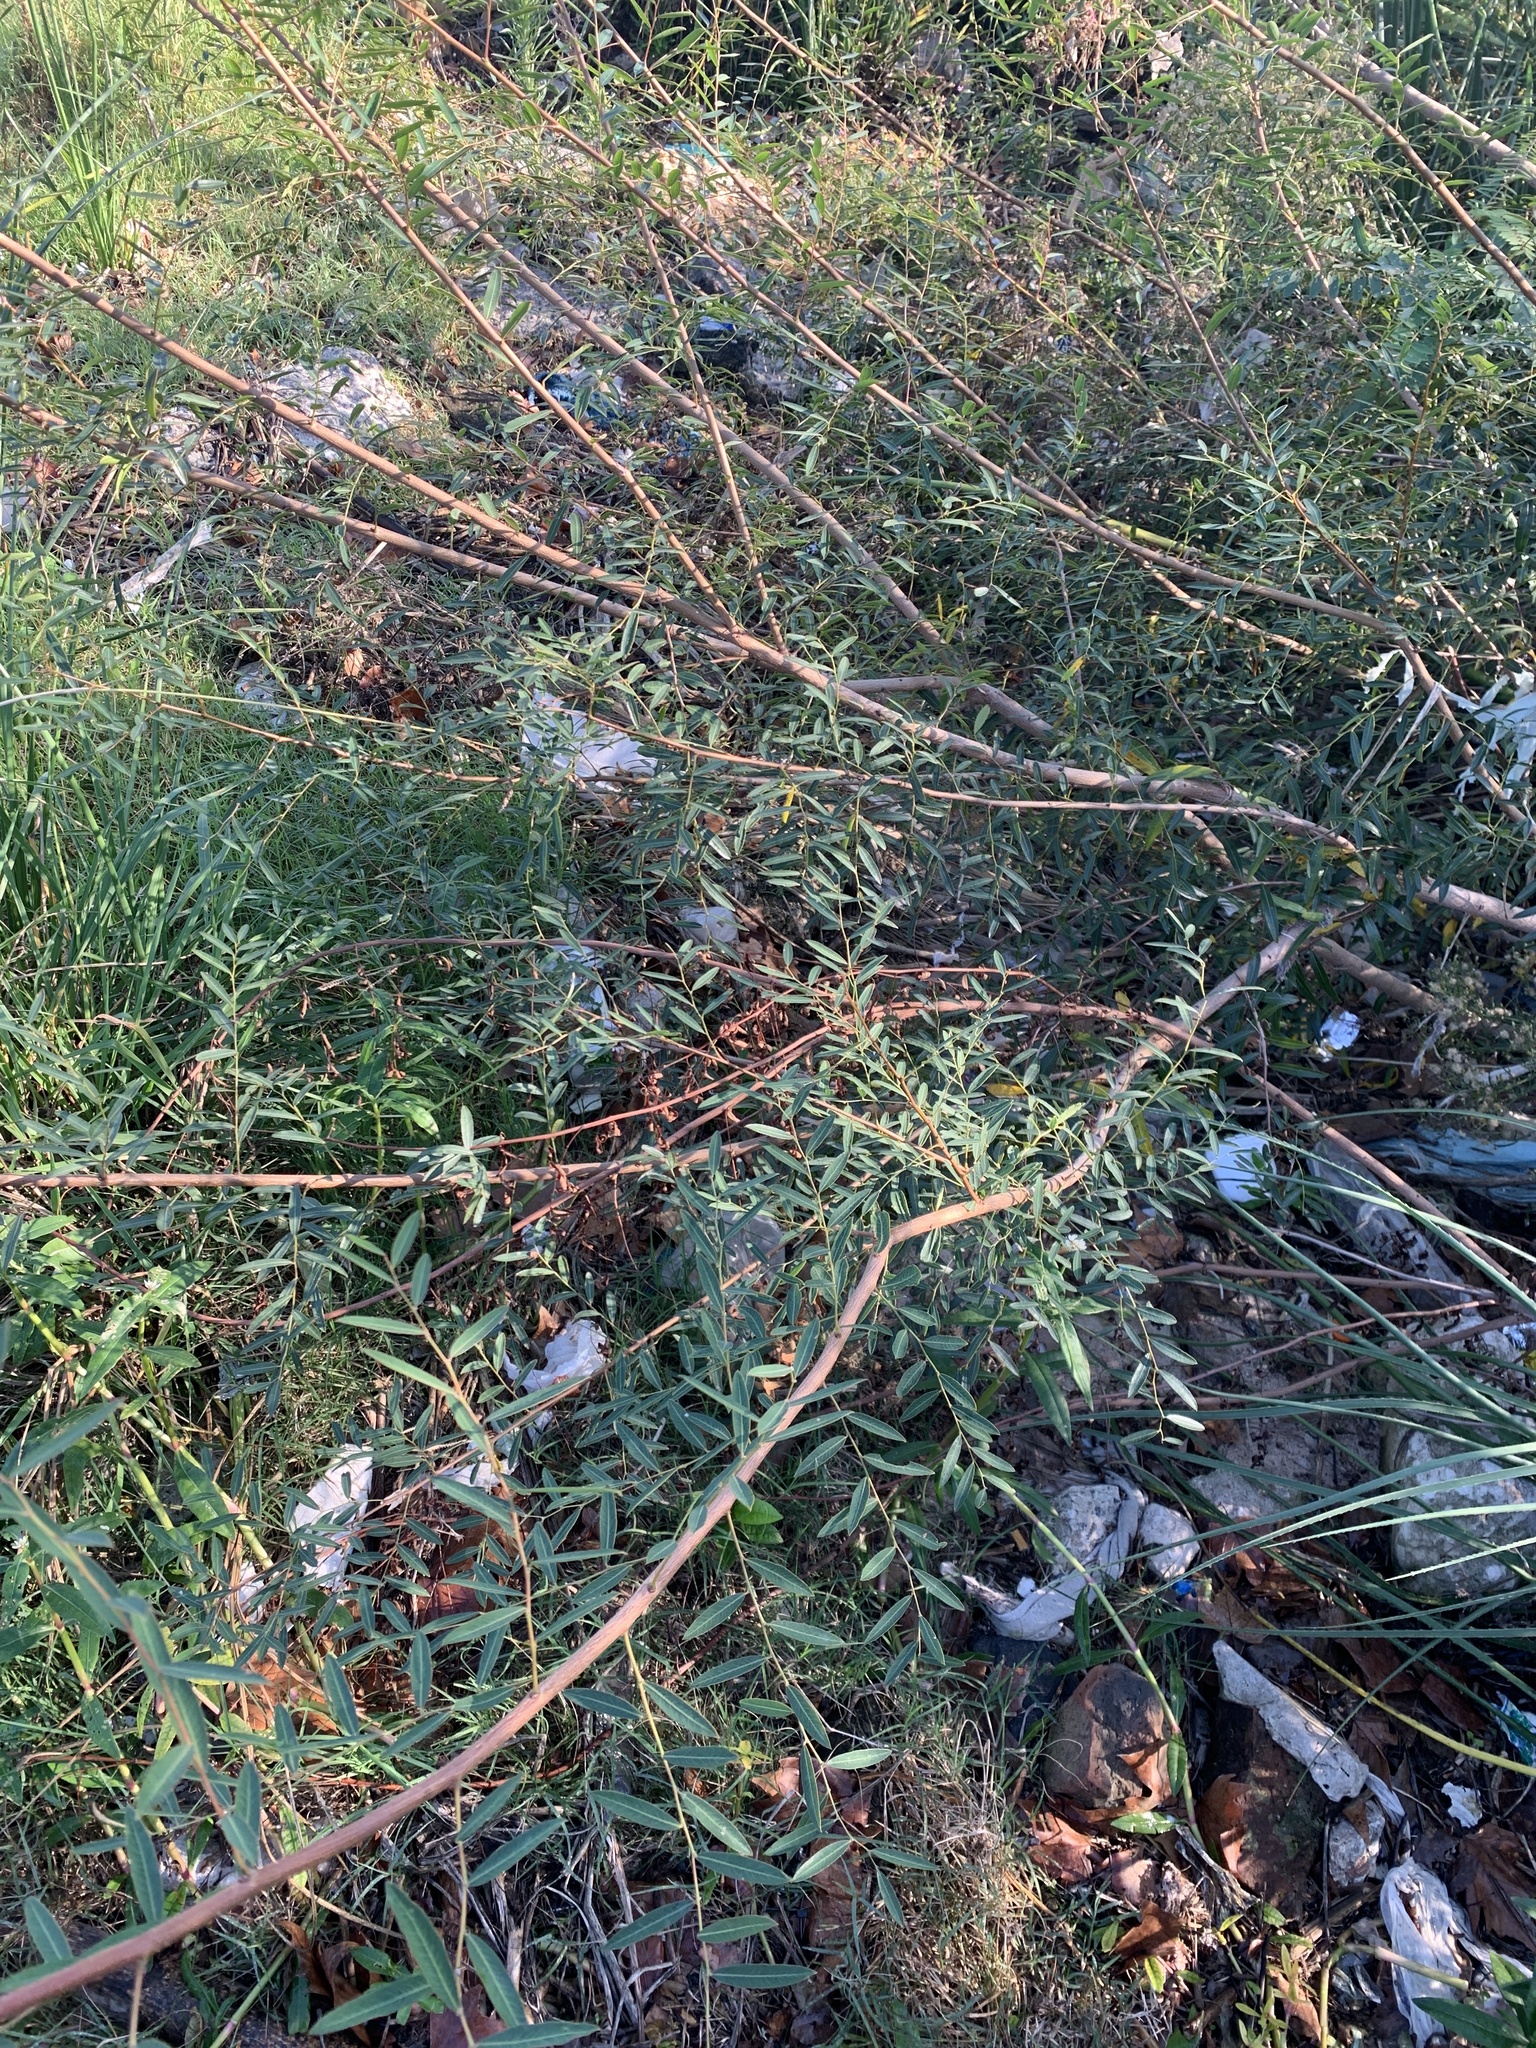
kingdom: Plantae
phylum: Tracheophyta
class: Magnoliopsida
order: Malpighiales
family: Phyllanthaceae
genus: Phyllanthus
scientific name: Phyllanthus sellowianus
